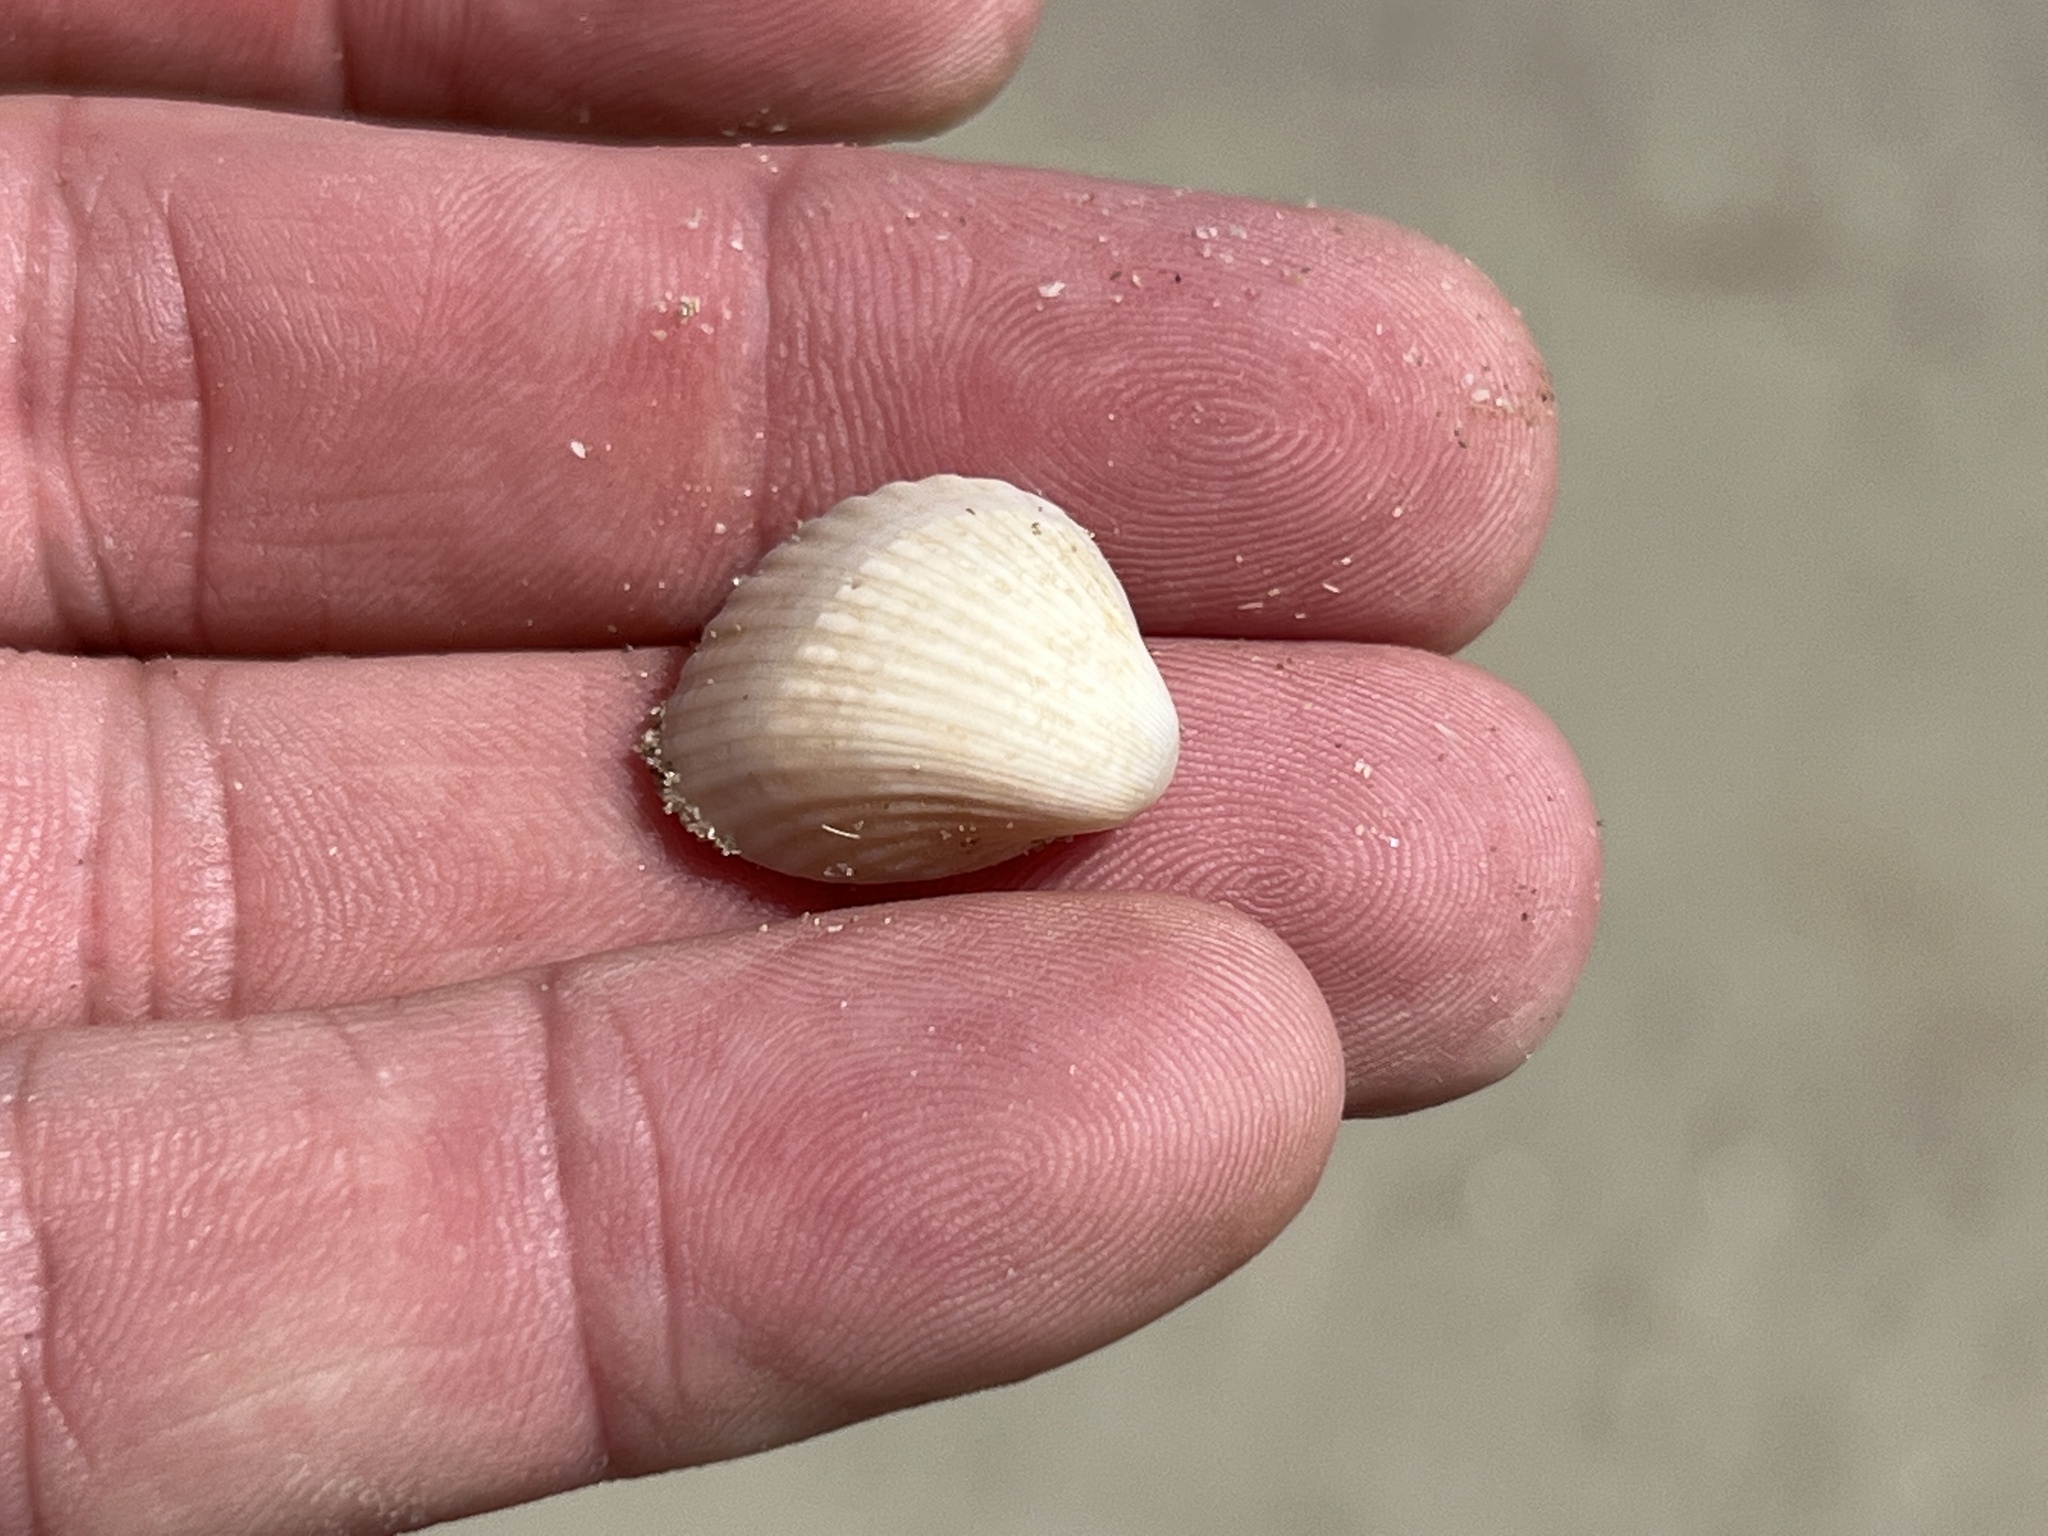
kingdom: Animalia
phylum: Mollusca
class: Bivalvia
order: Arcida
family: Arcidae
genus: Anadara
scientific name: Anadara chemnitzii
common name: Chemnitz's triangular ark
